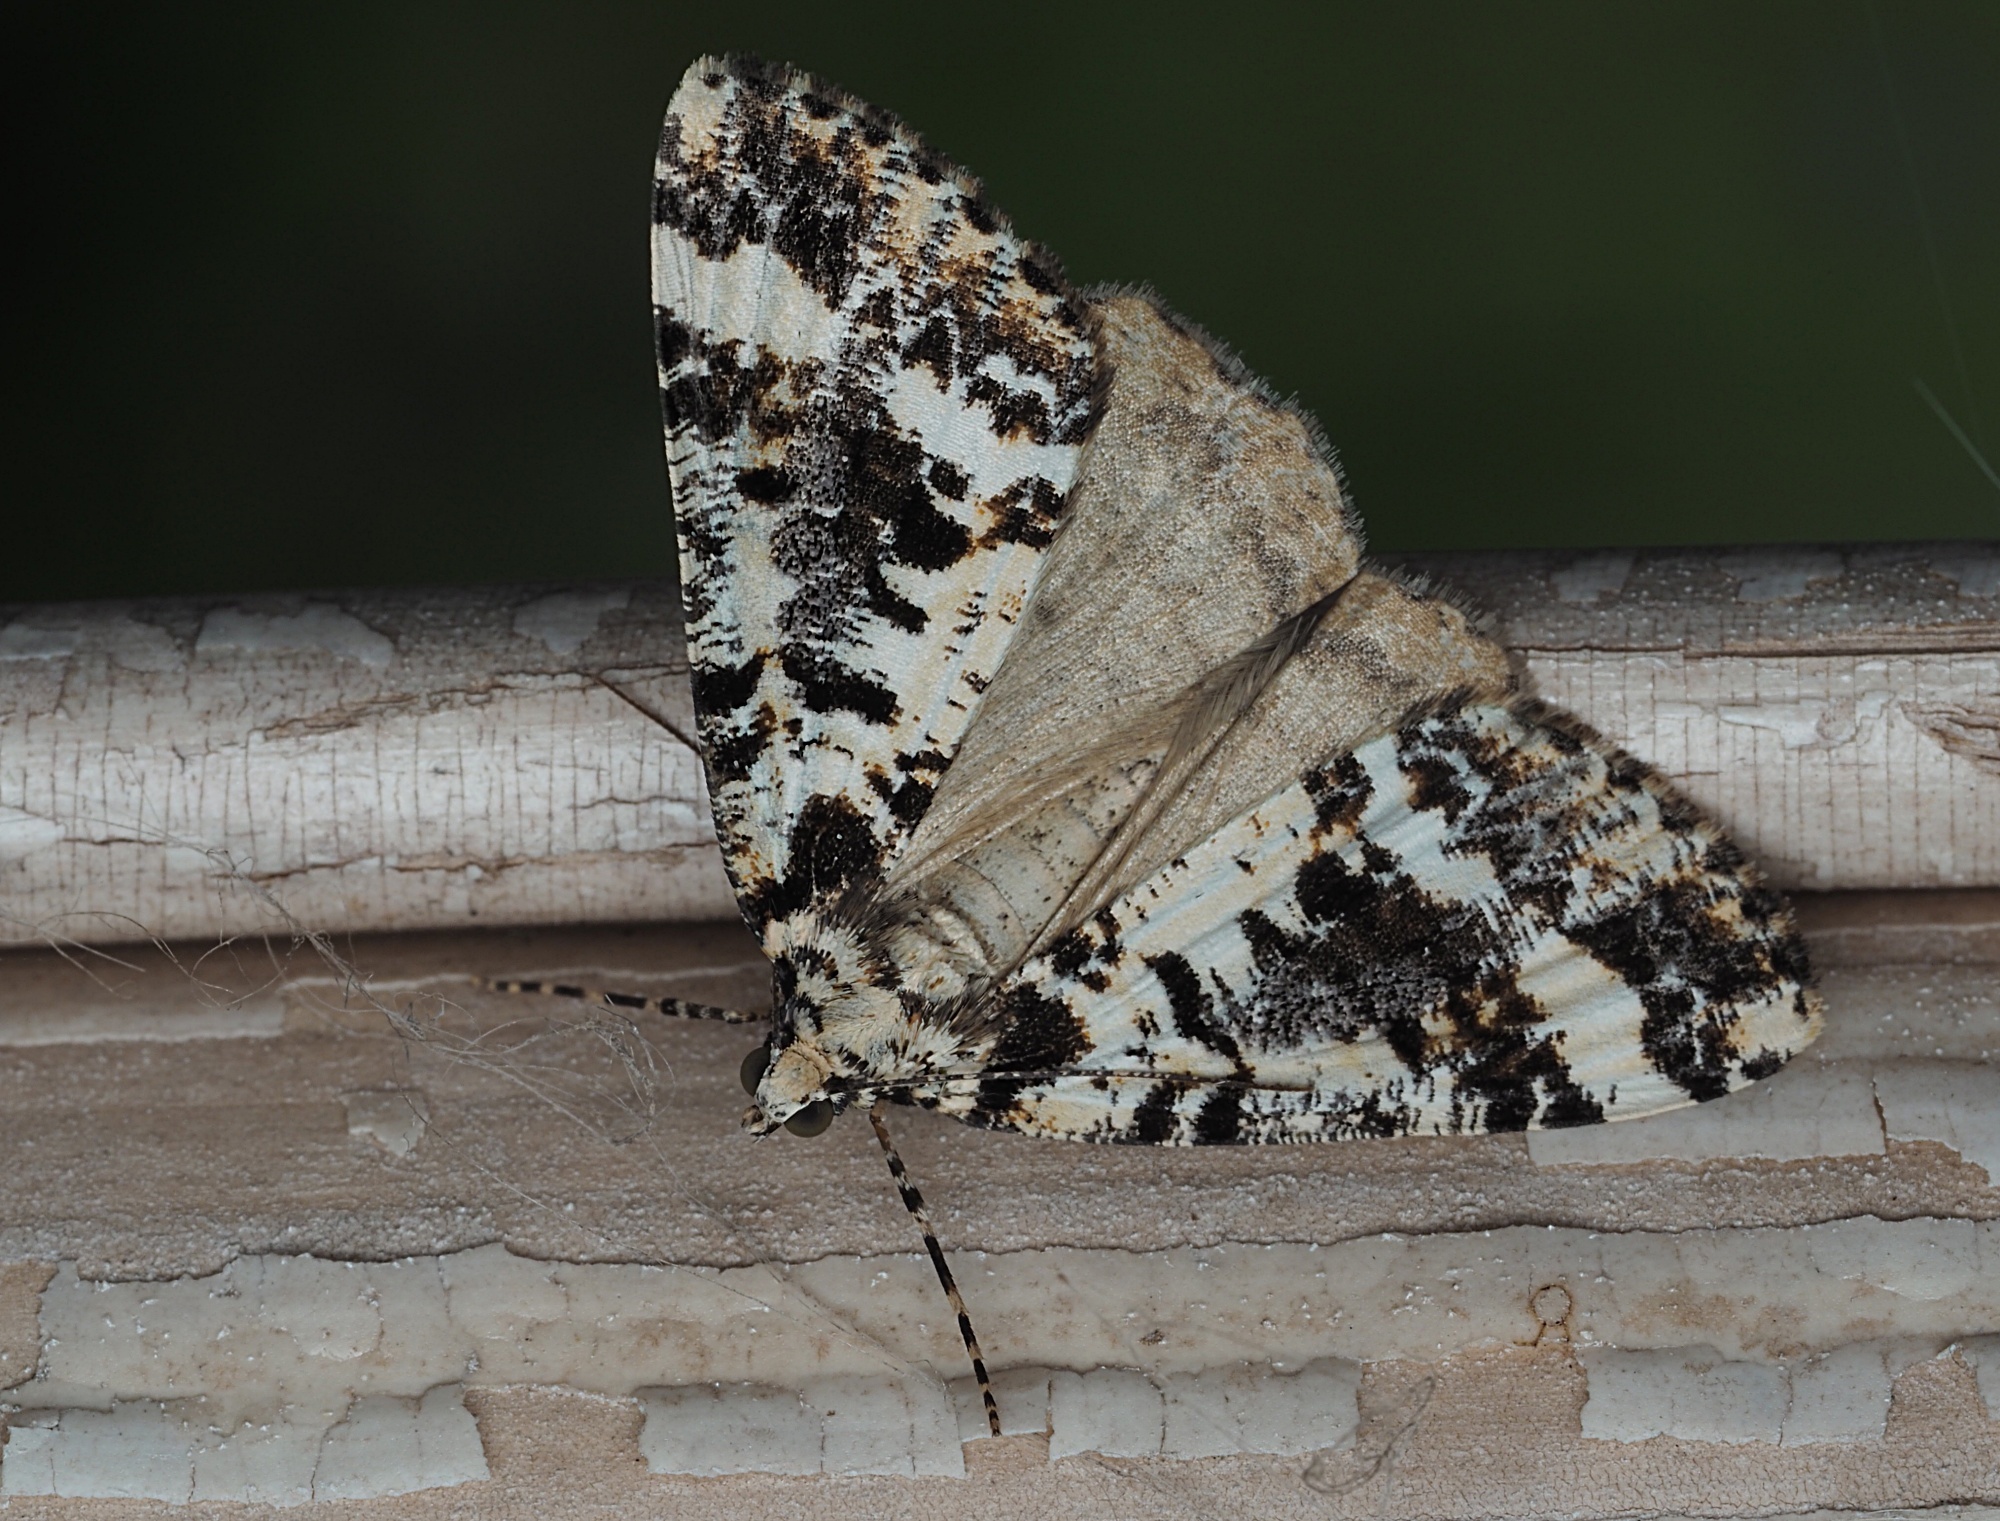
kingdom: Animalia
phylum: Arthropoda
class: Insecta
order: Lepidoptera
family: Geometridae
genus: Pseudocoremia
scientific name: Pseudocoremia leucelaea
